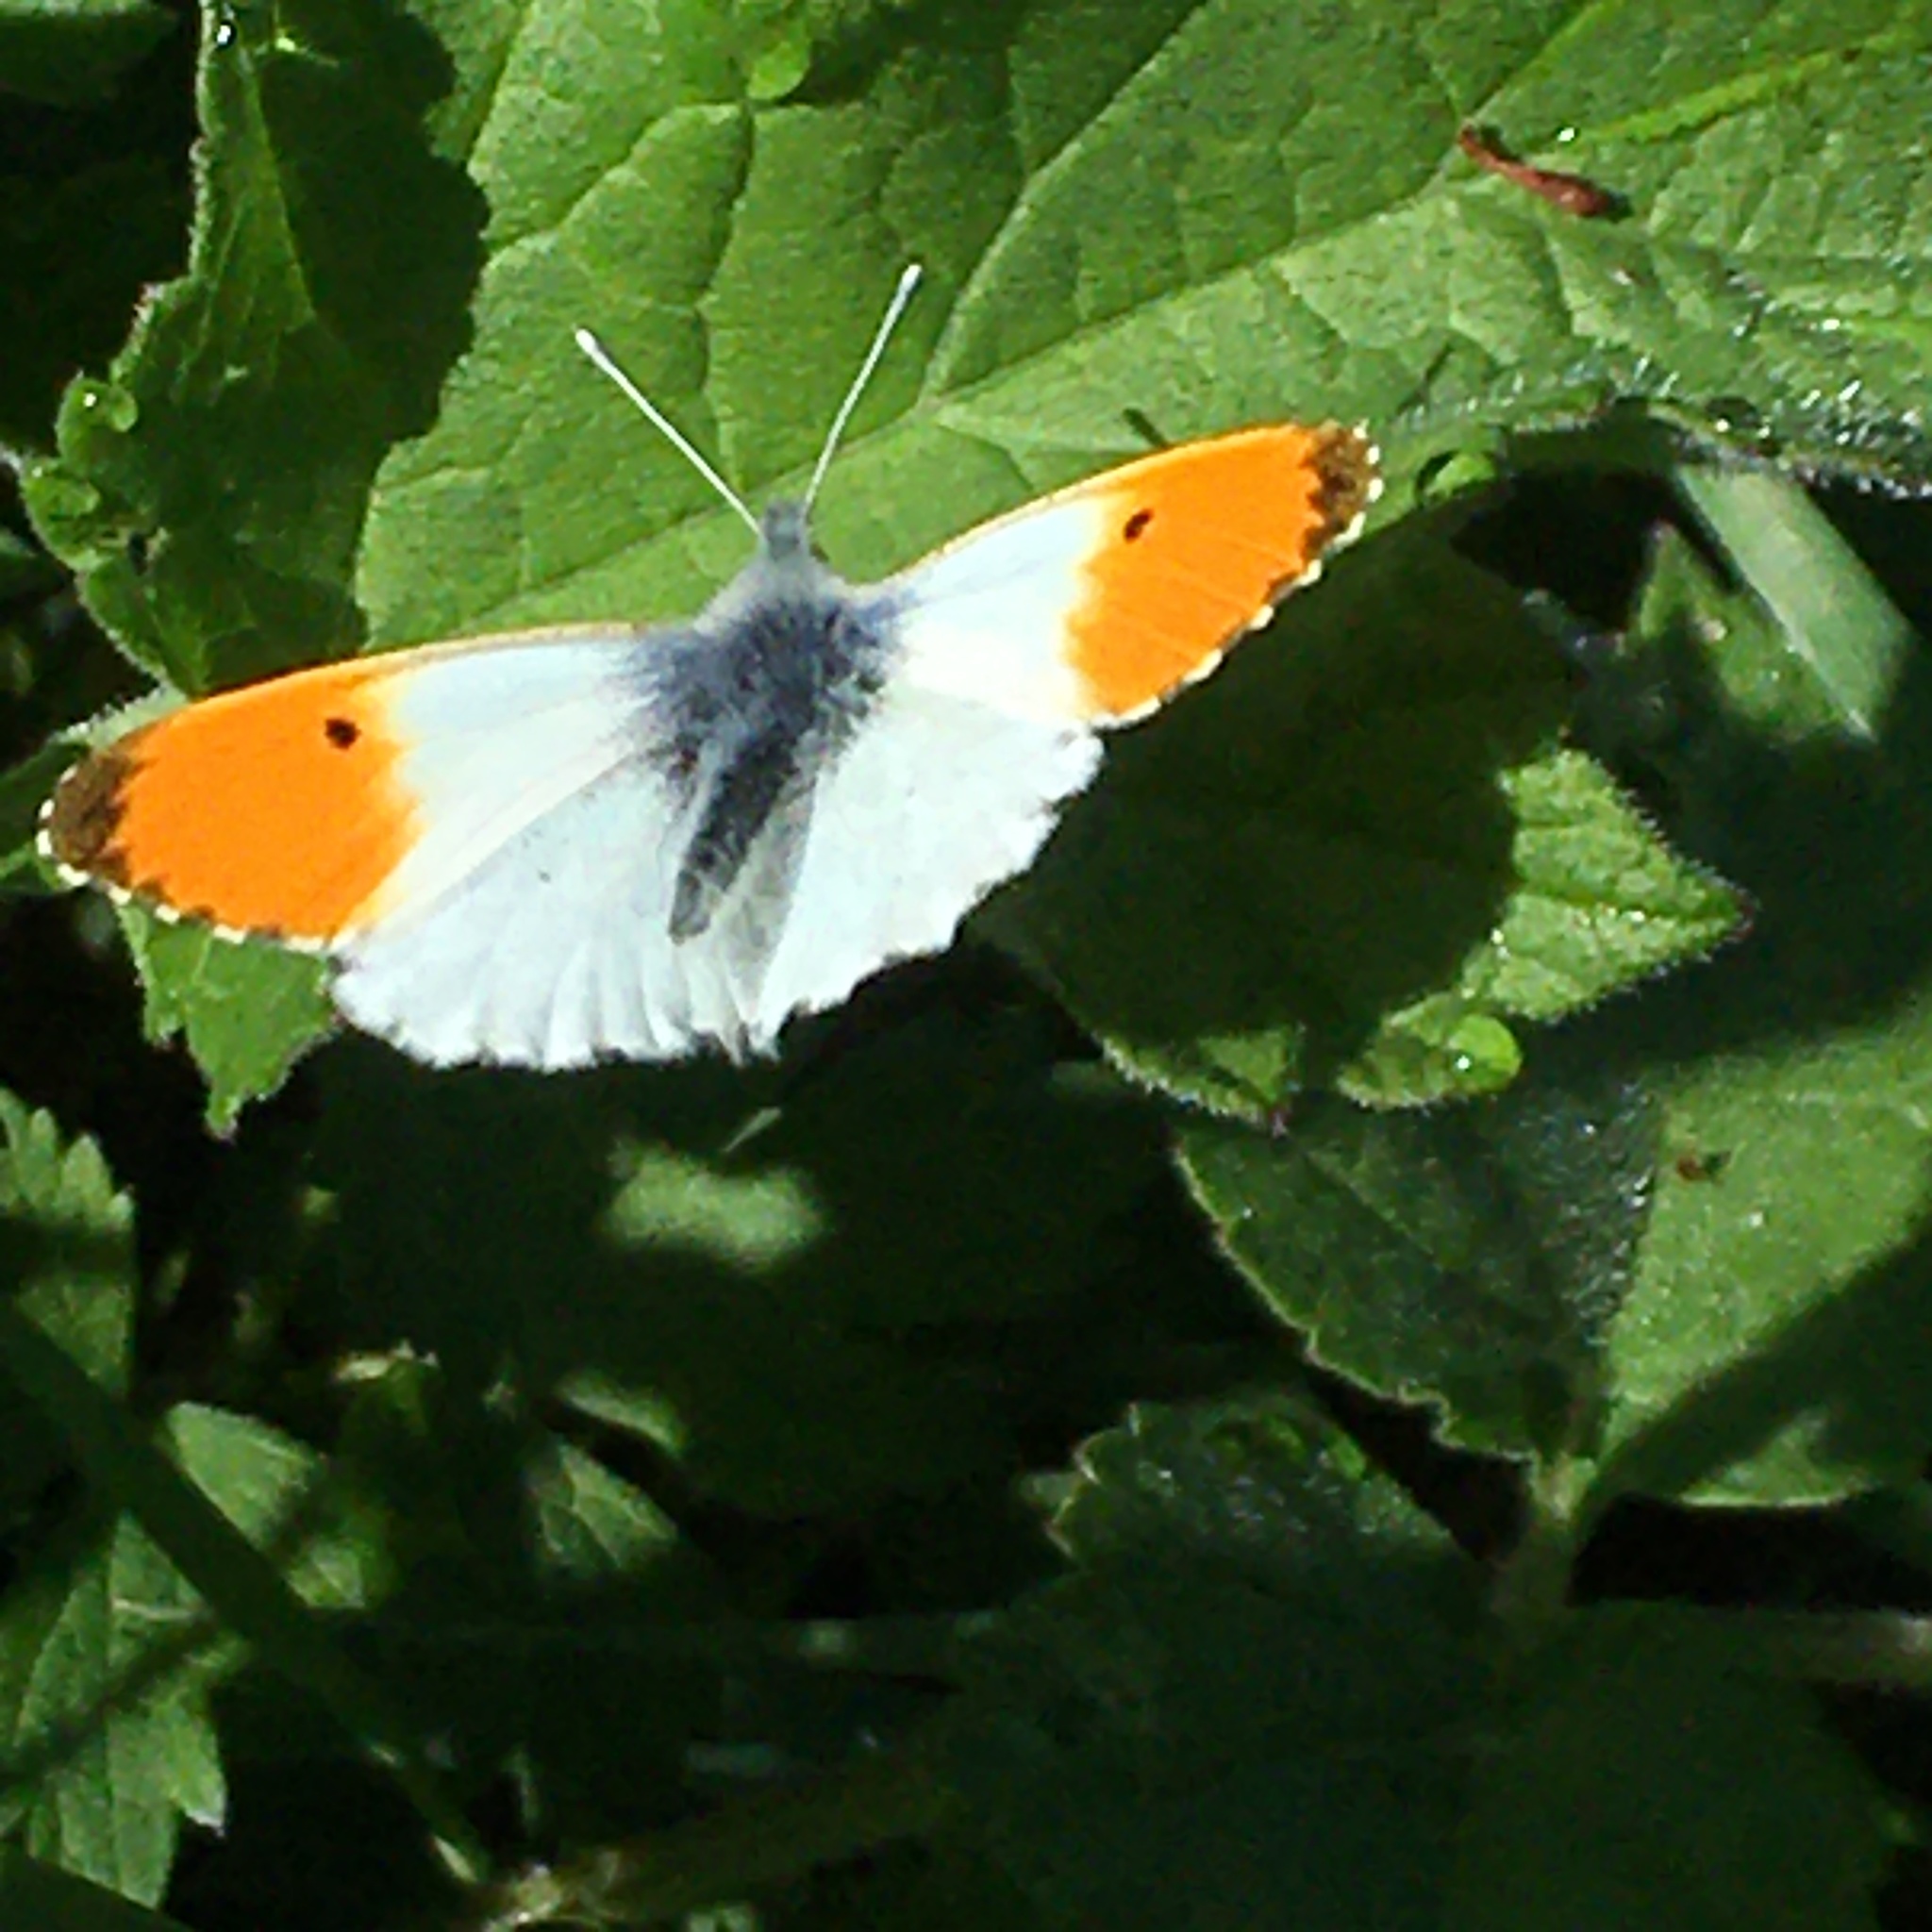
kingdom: Animalia
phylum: Arthropoda
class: Insecta
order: Lepidoptera
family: Pieridae
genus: Anthocharis
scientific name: Anthocharis cardamines
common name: Orange-tip
